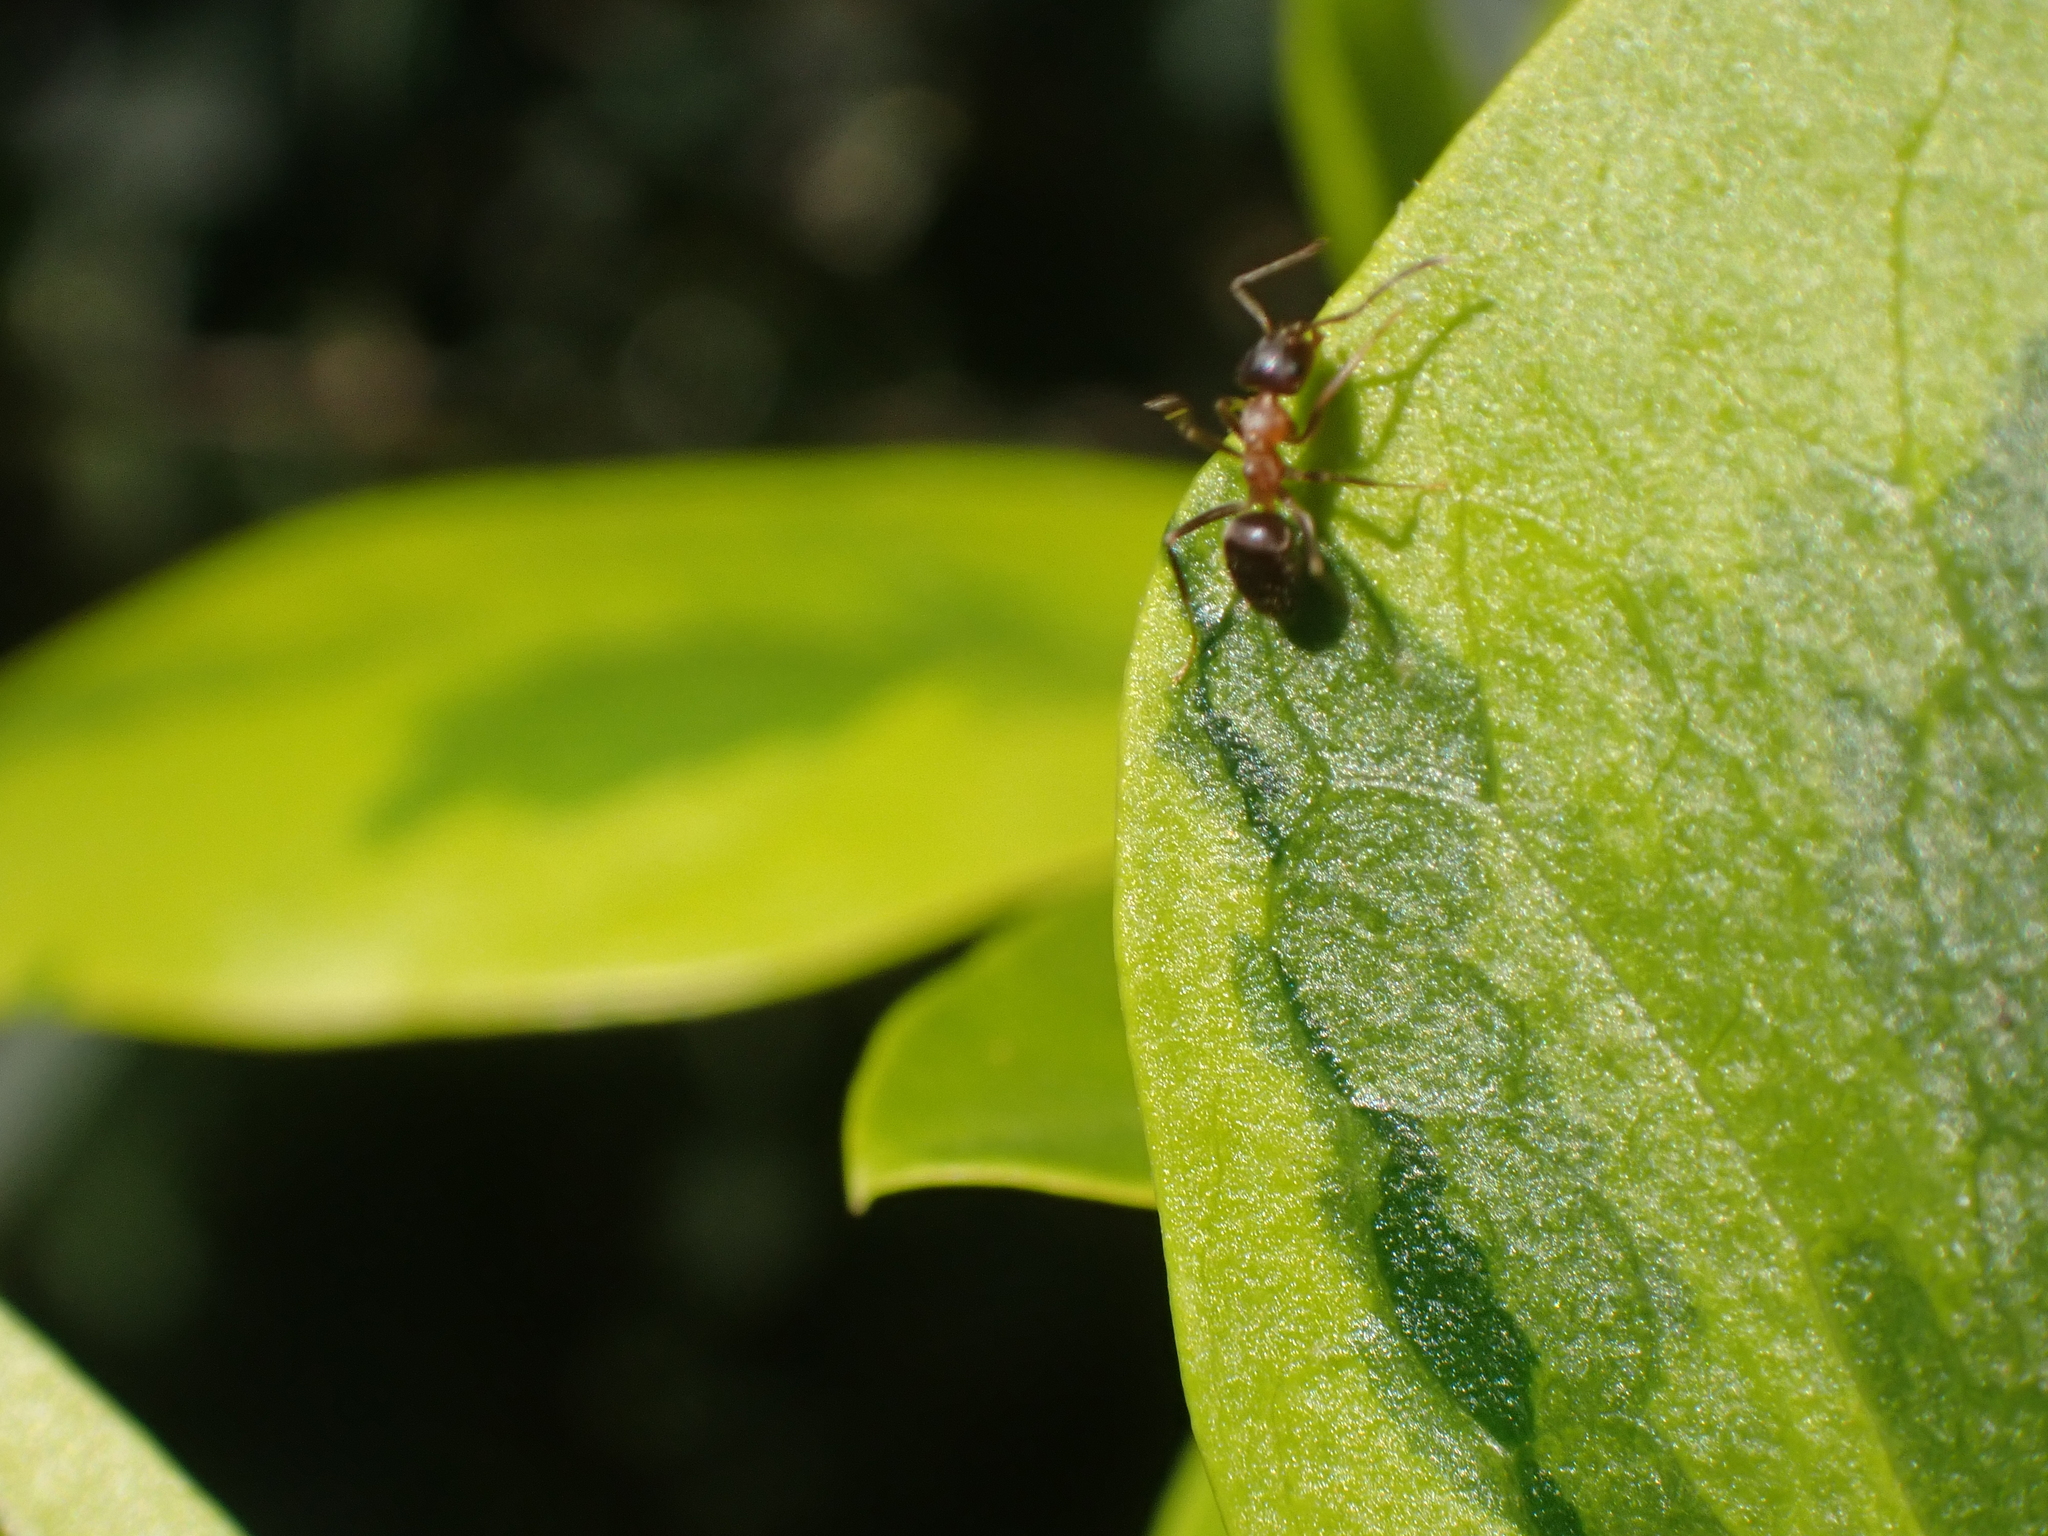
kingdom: Animalia
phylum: Arthropoda
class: Insecta
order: Hymenoptera
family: Formicidae
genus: Lasius
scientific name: Lasius emarginatus
